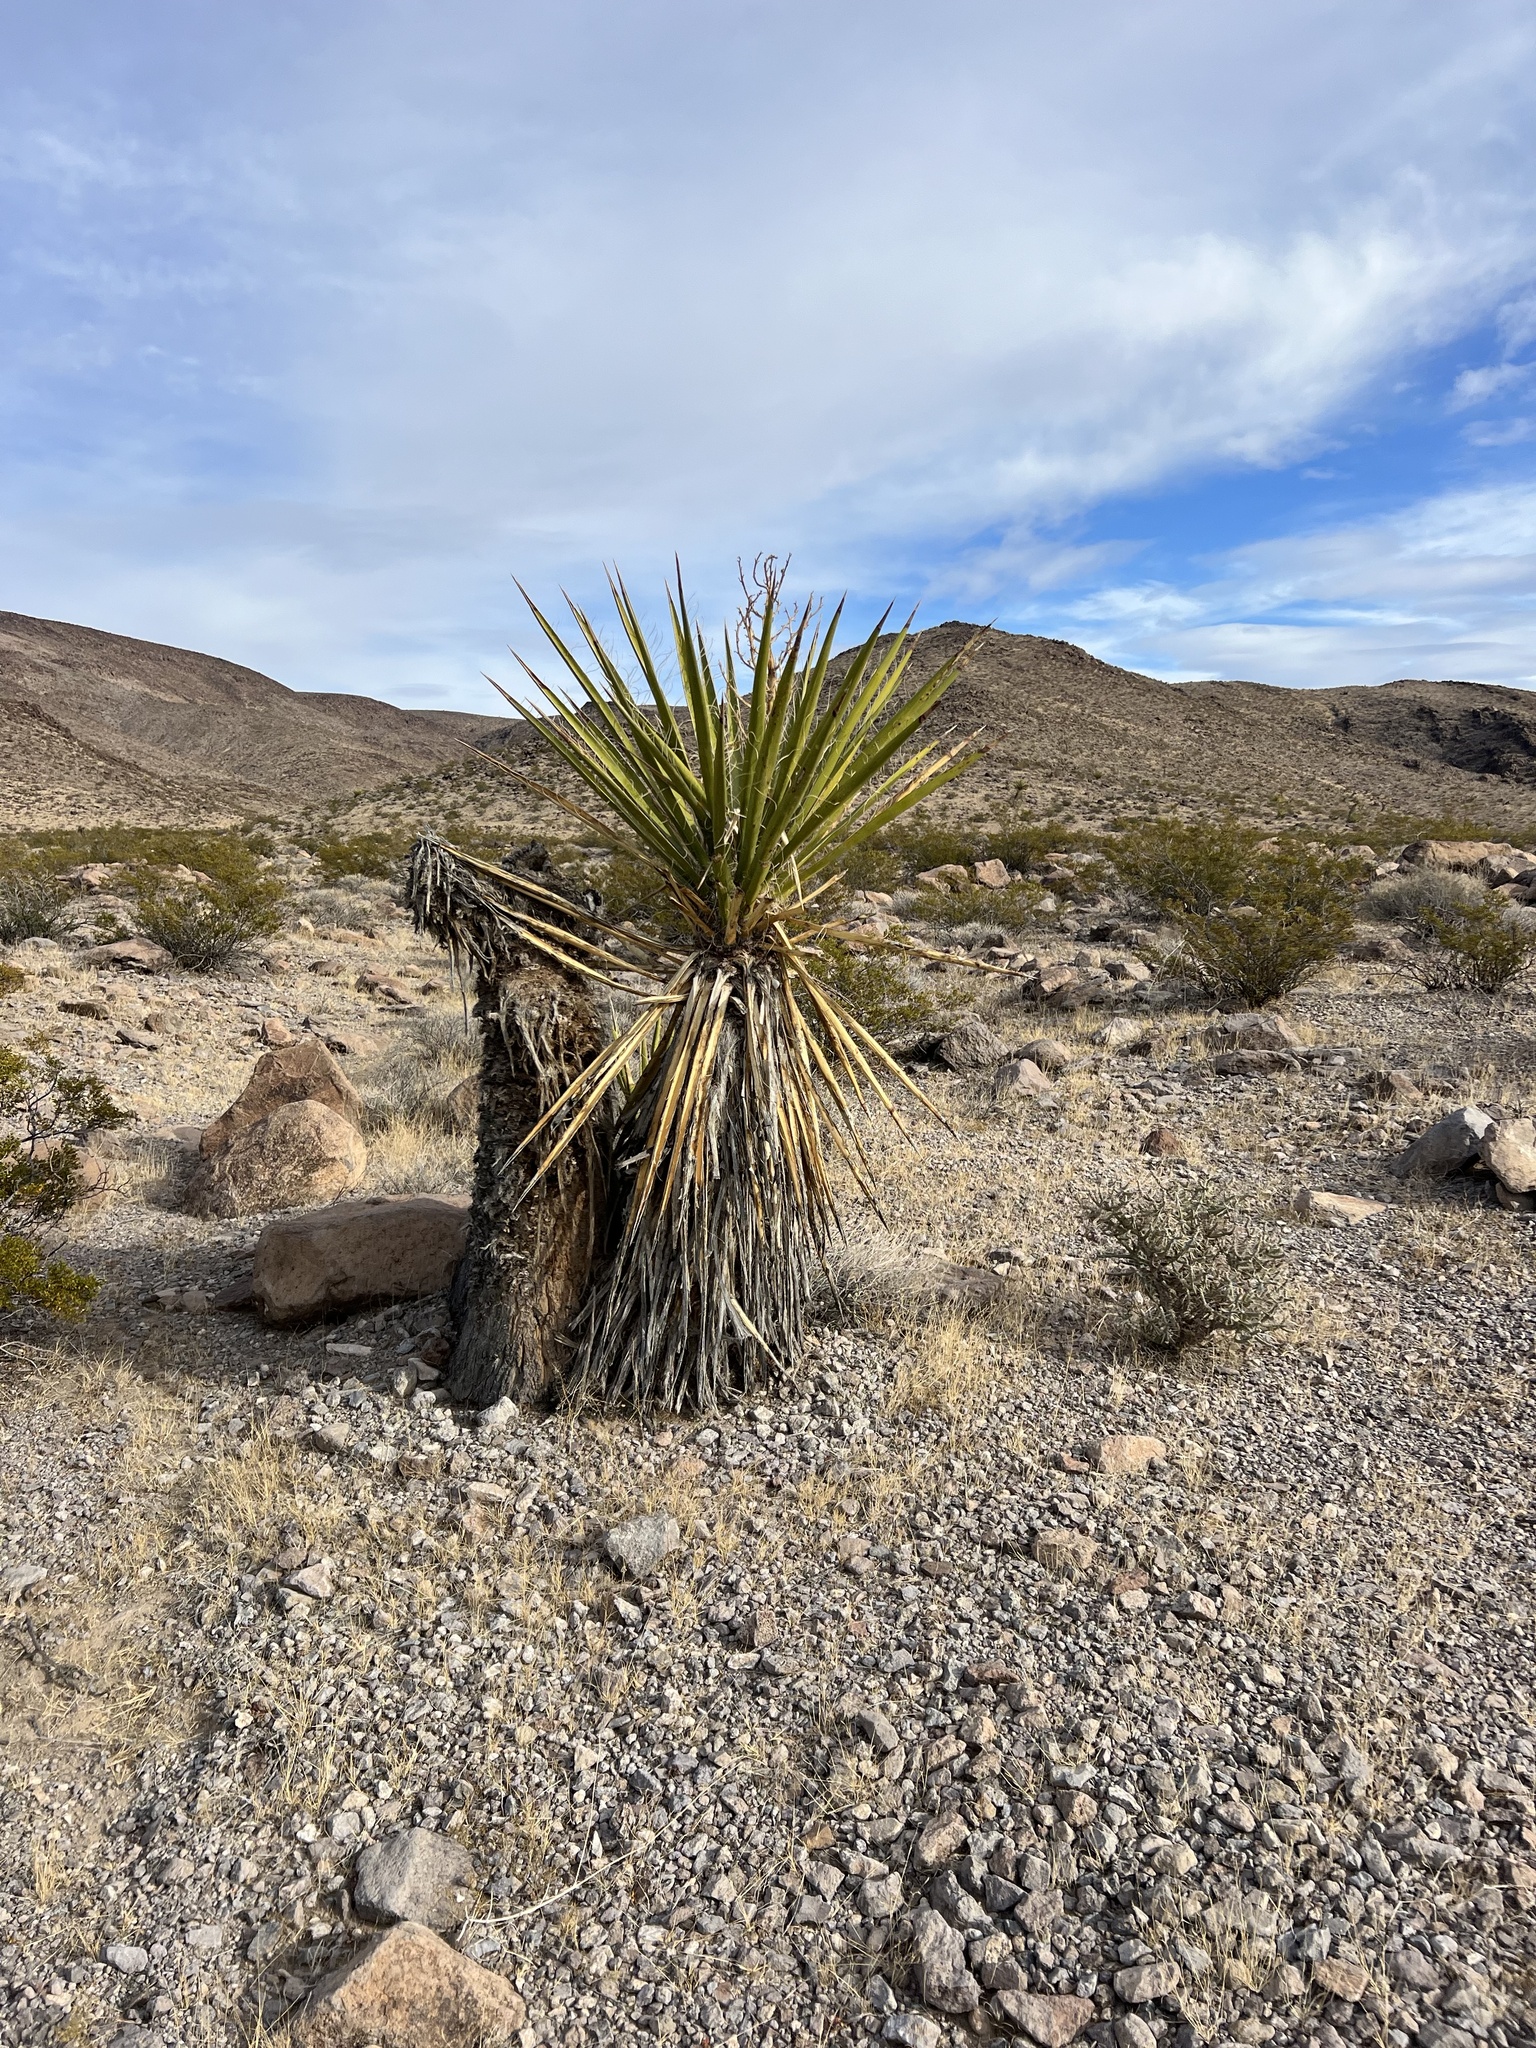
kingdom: Plantae
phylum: Tracheophyta
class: Liliopsida
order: Asparagales
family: Asparagaceae
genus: Yucca
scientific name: Yucca schidigera
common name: Mojave yucca
